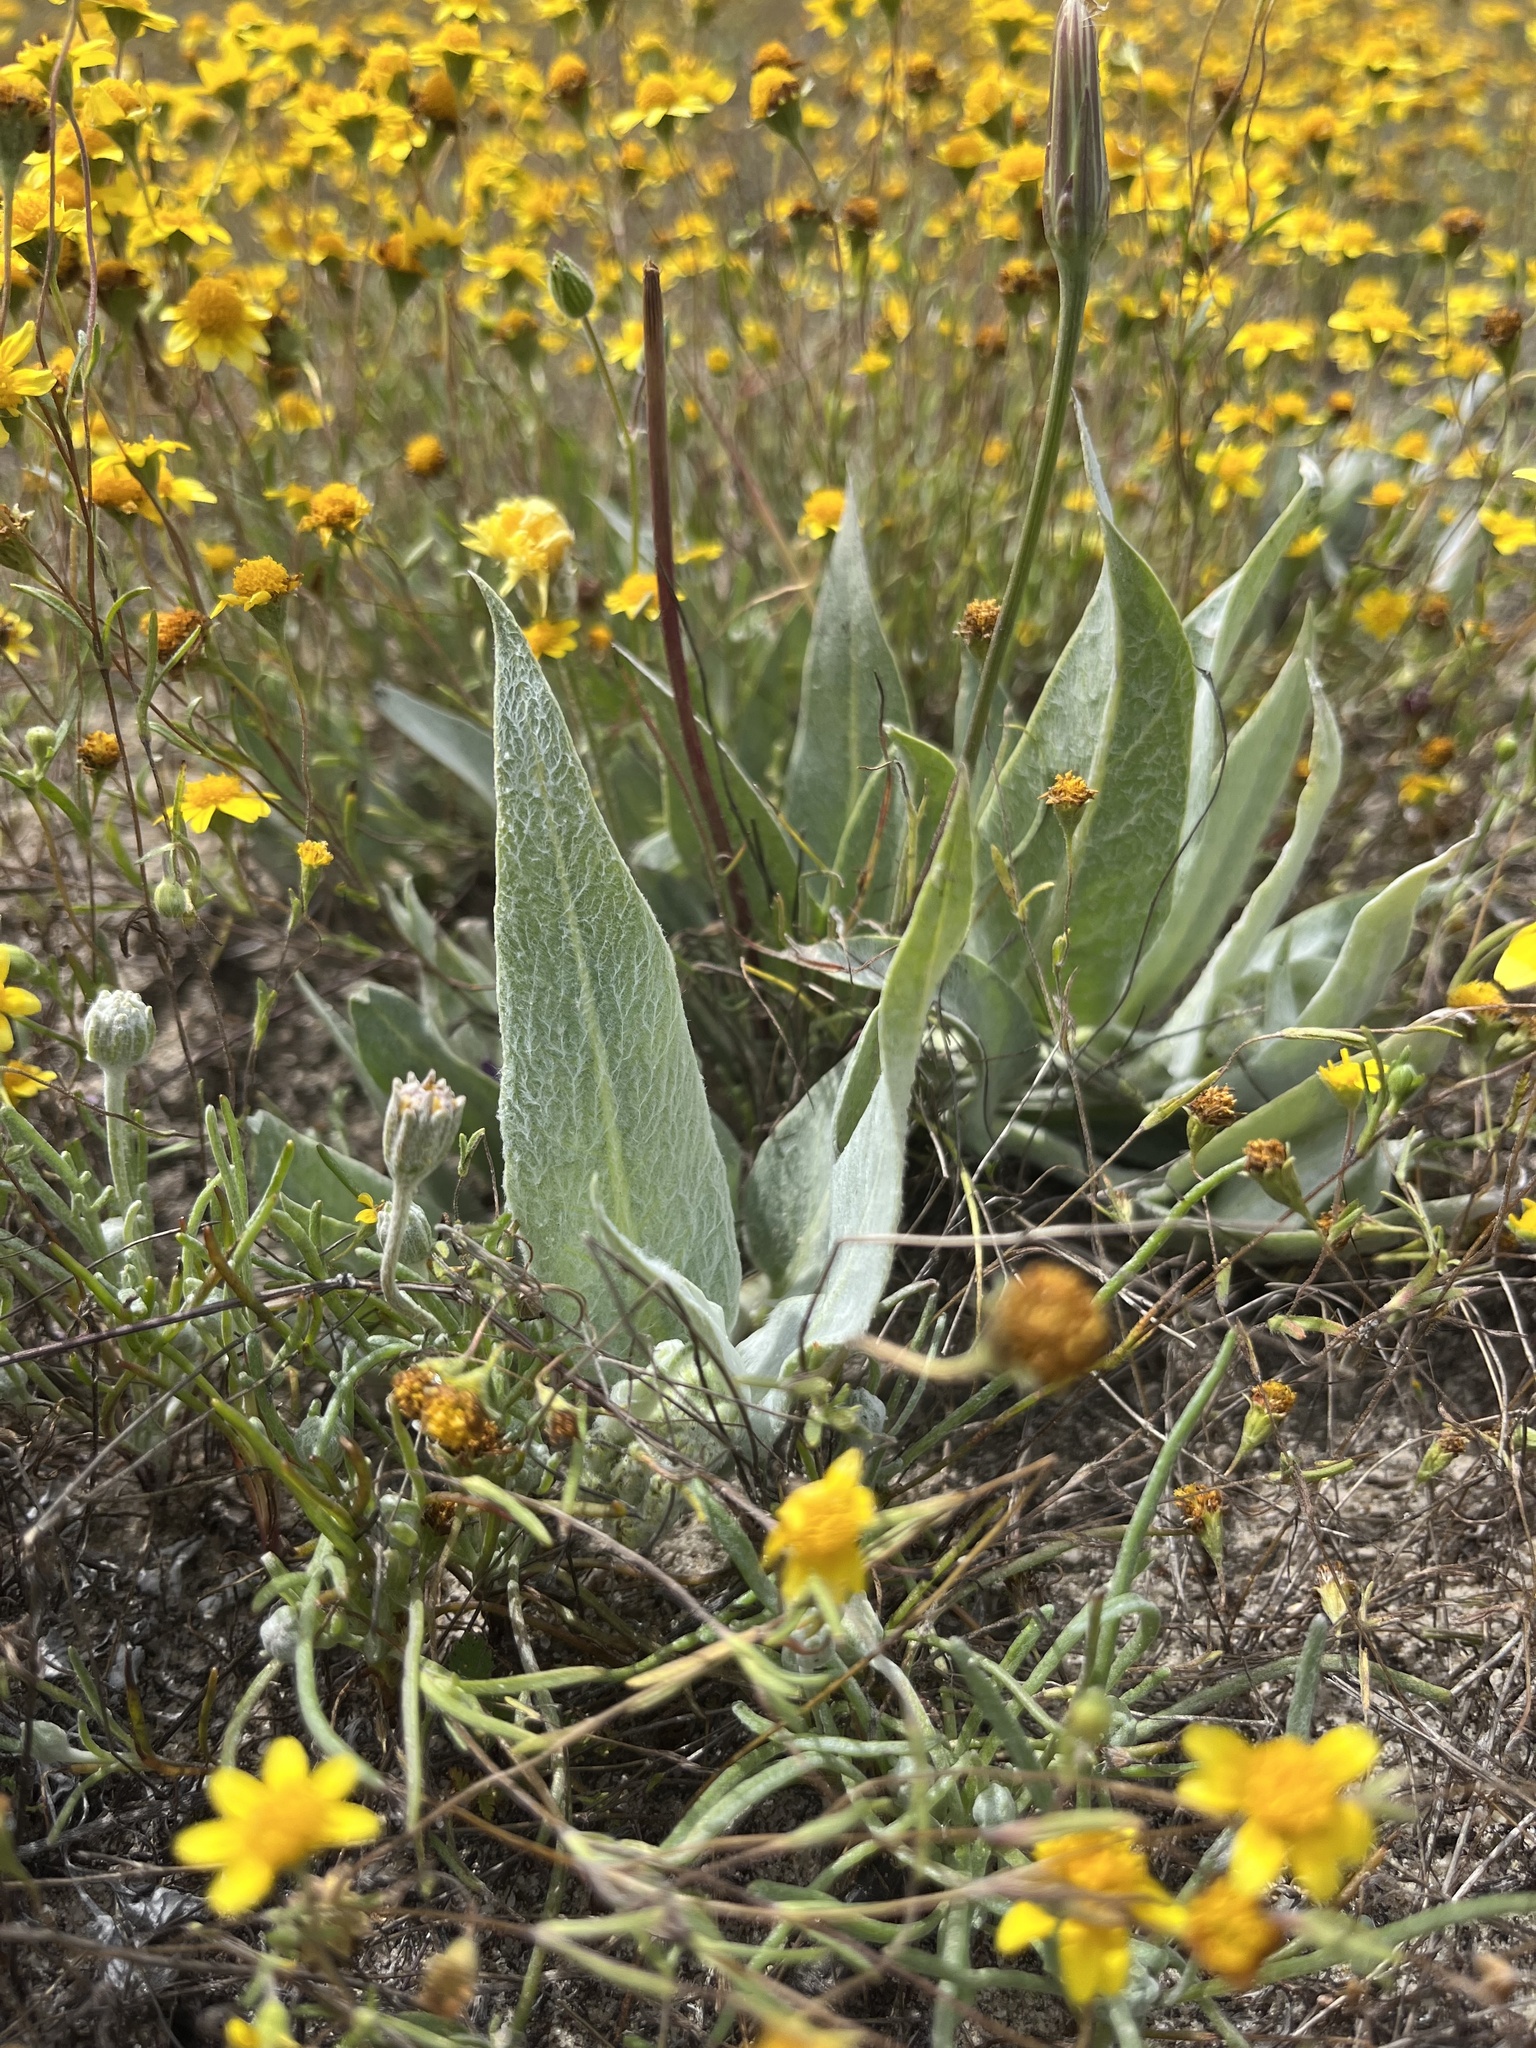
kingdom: Plantae
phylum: Tracheophyta
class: Magnoliopsida
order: Gentianales
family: Apocynaceae
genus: Asclepias
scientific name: Asclepias vestita
